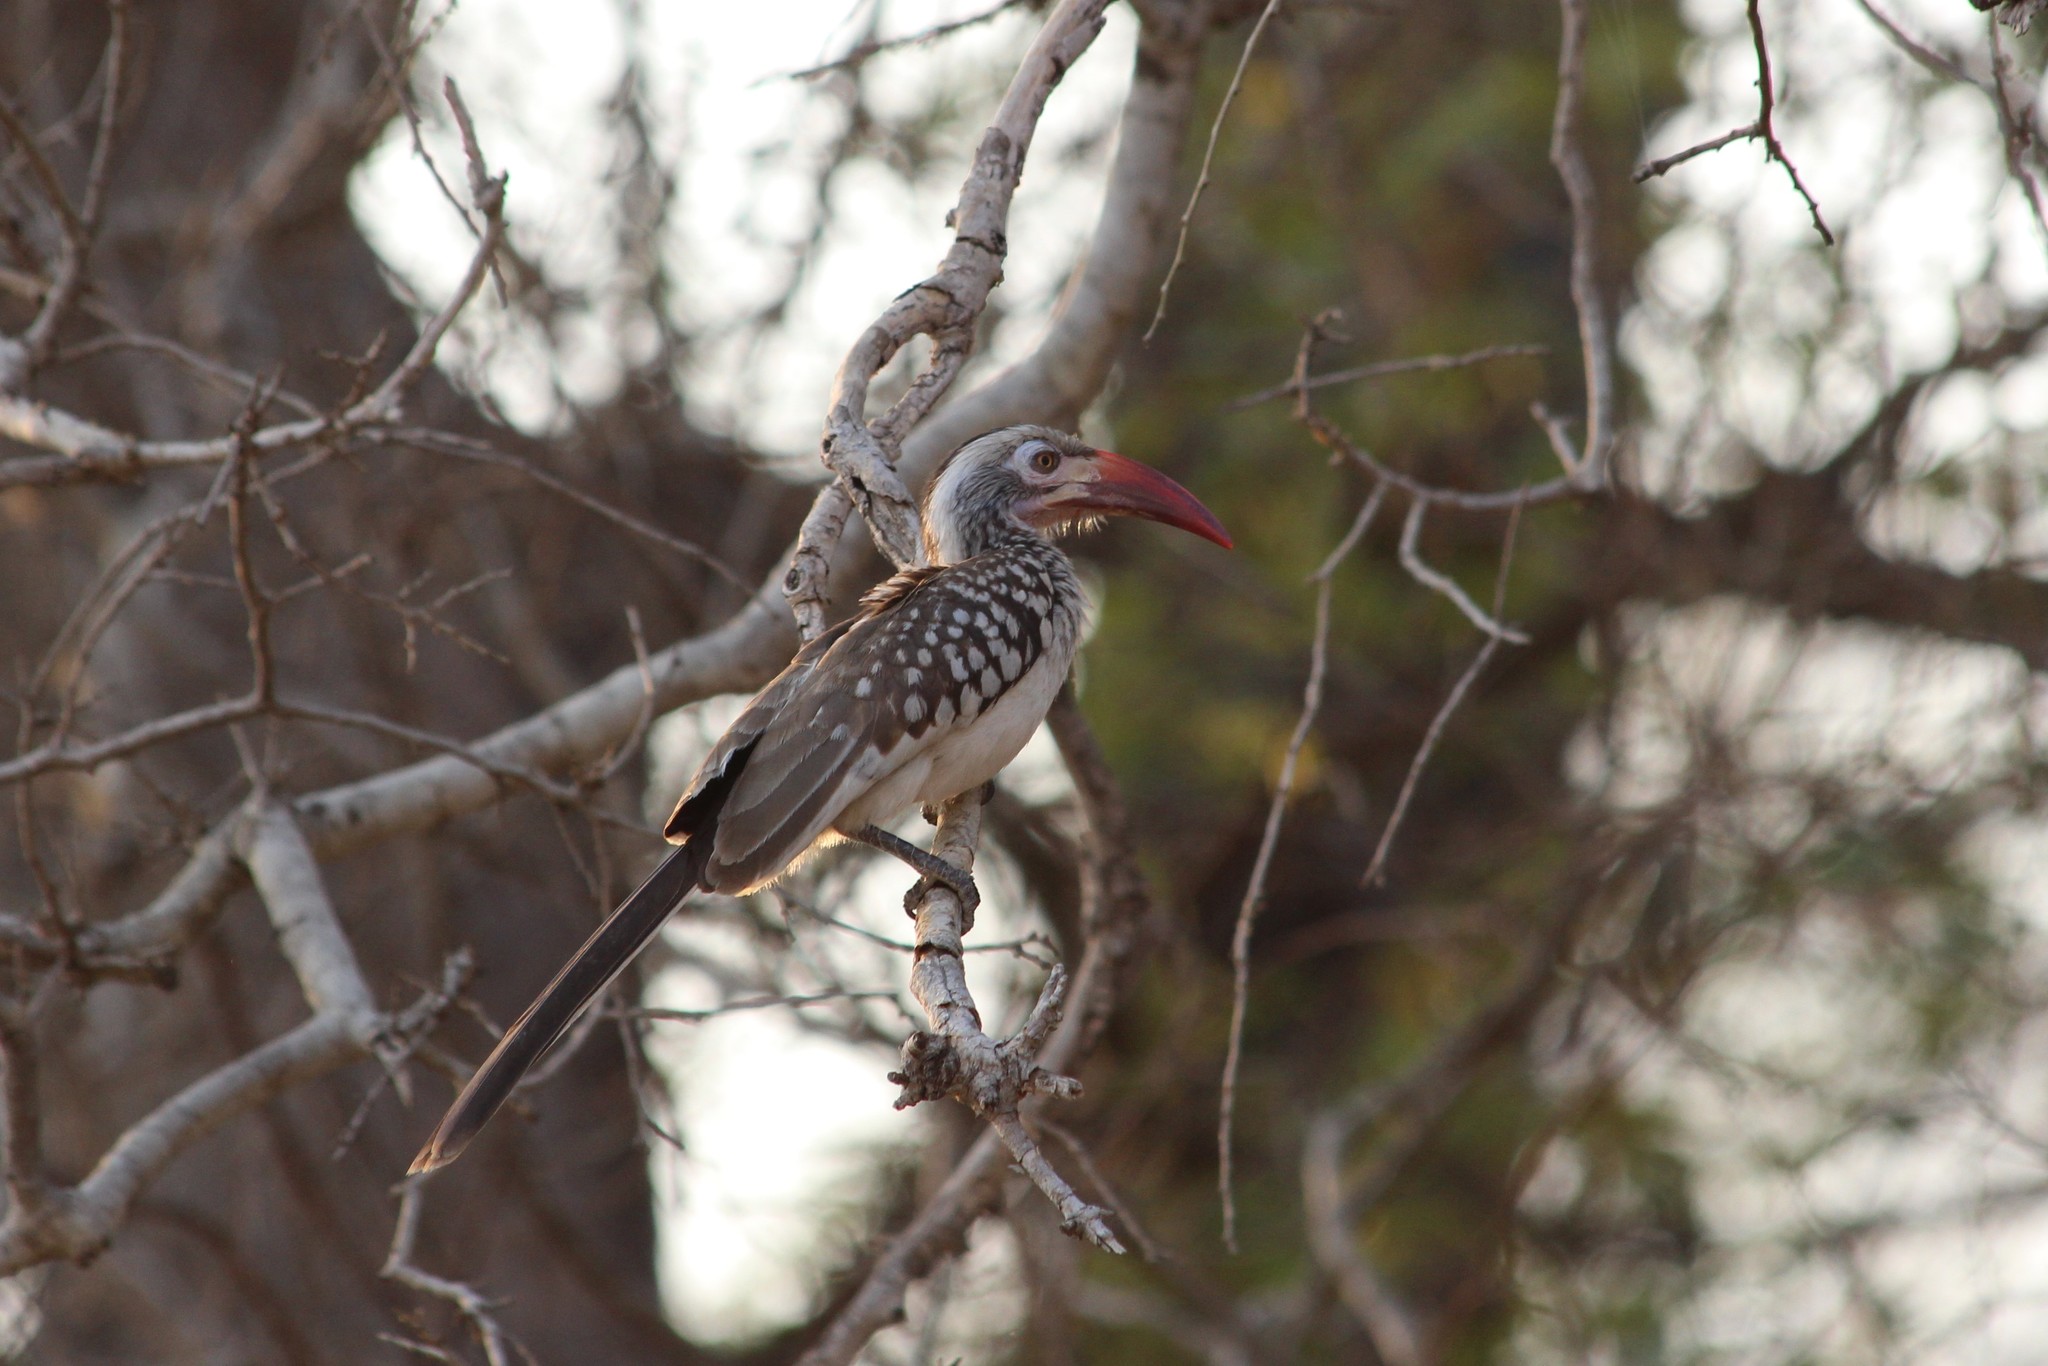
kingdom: Animalia
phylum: Chordata
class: Aves
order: Bucerotiformes
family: Bucerotidae
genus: Tockus
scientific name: Tockus rufirostris
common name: Southern red-billed hornbill
